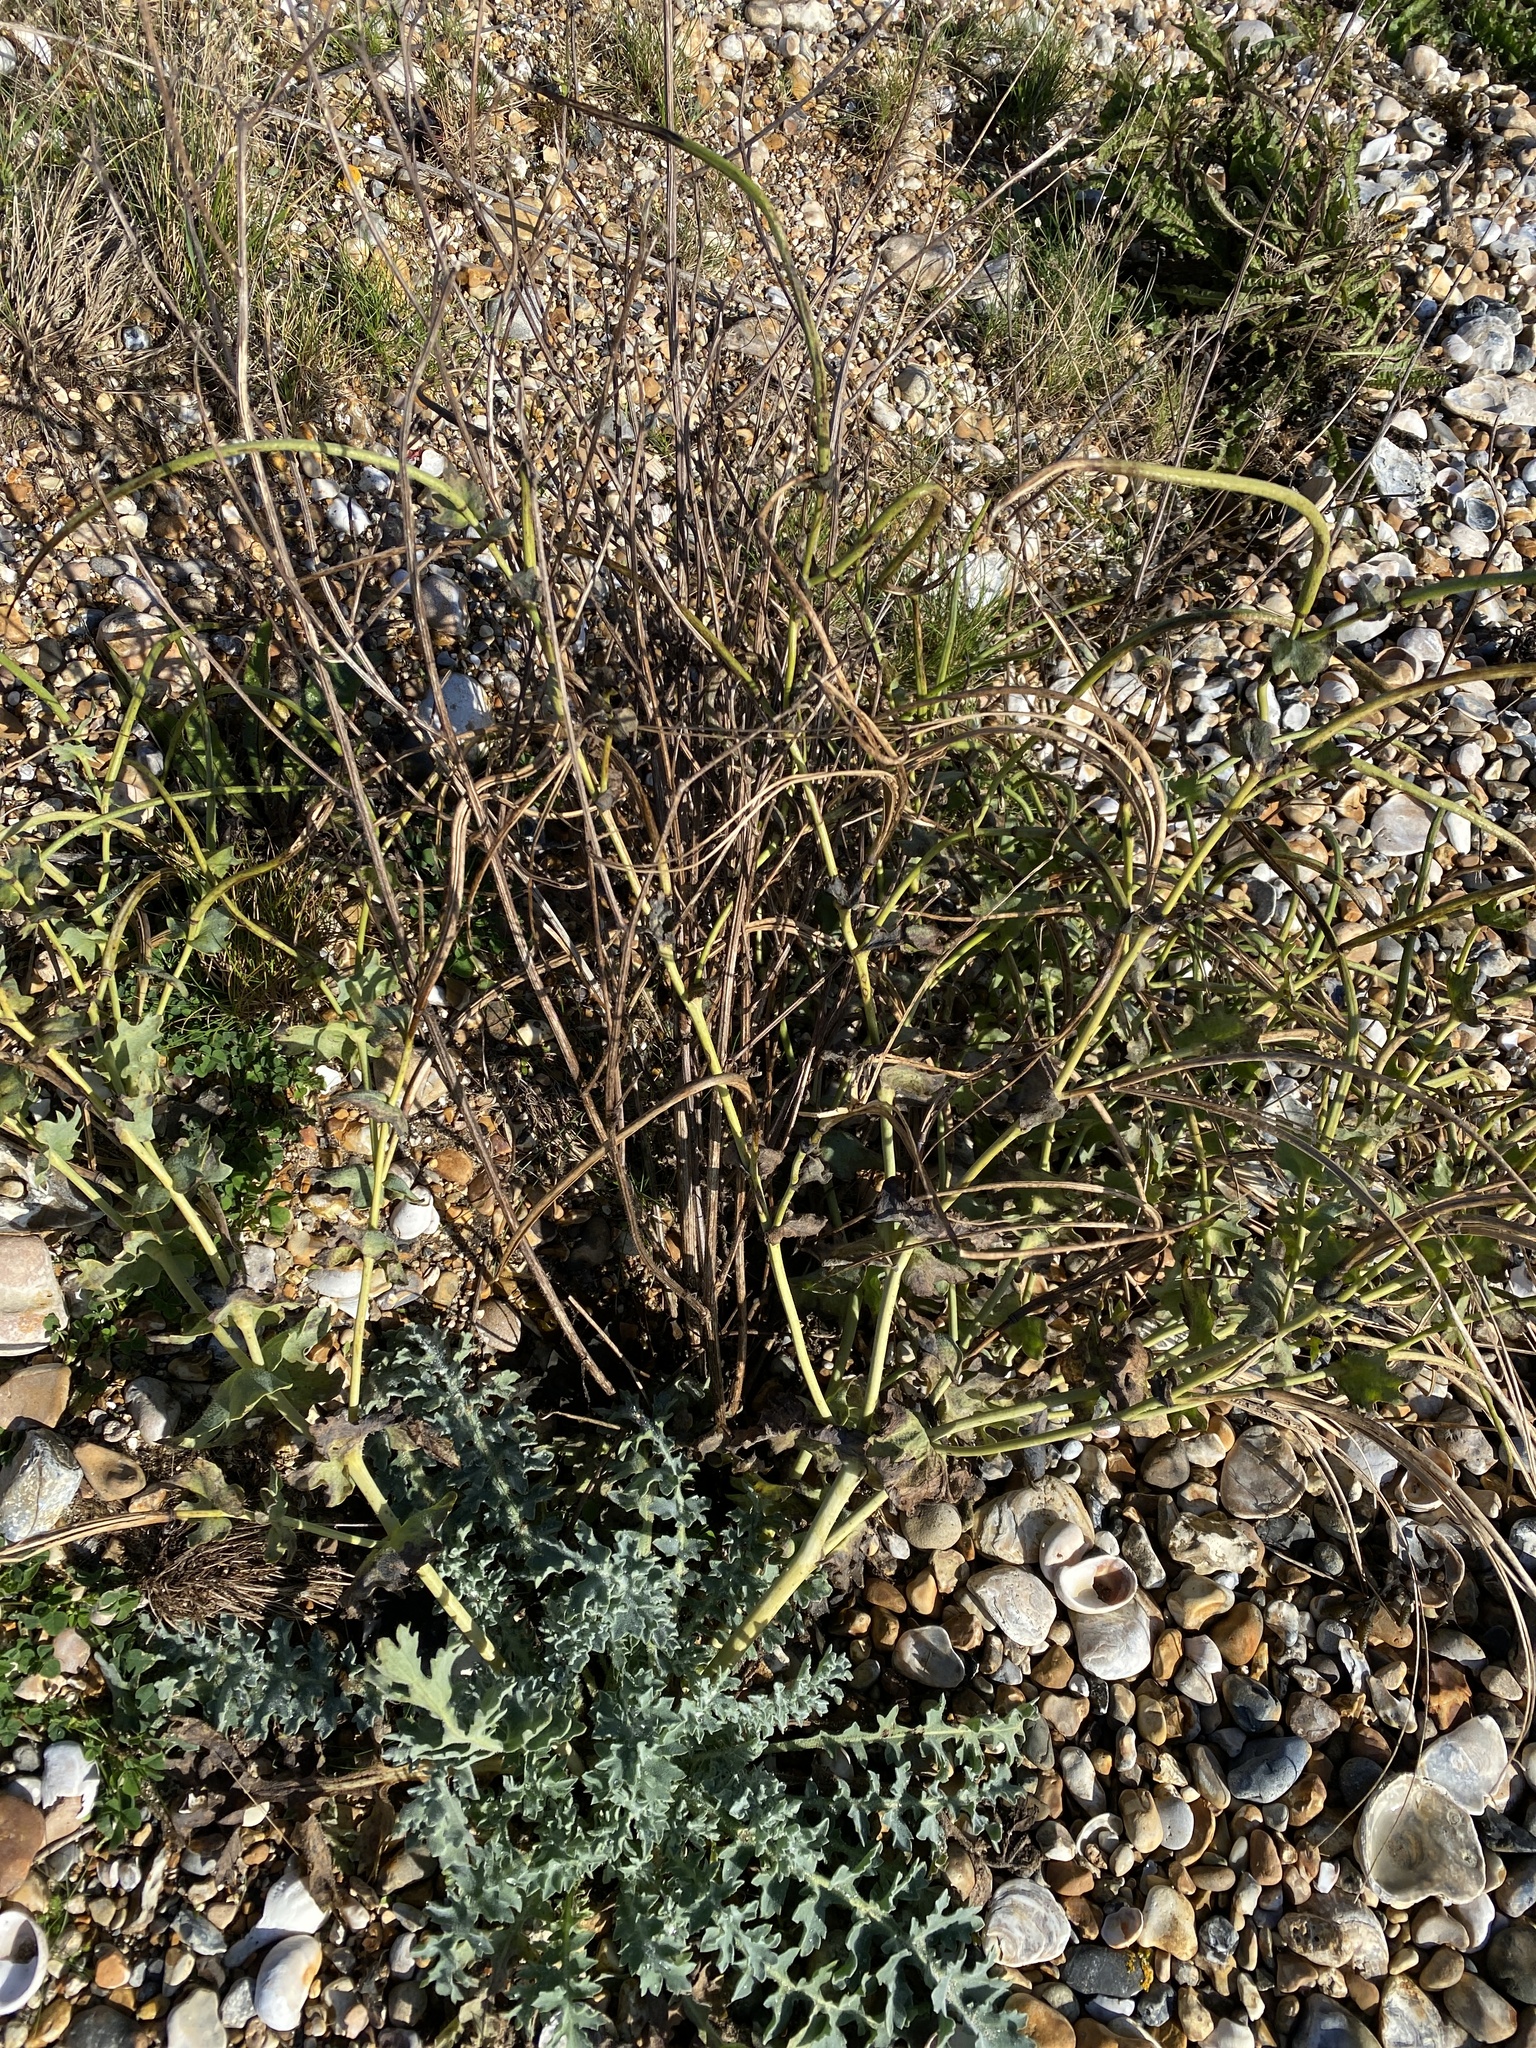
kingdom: Plantae
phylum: Tracheophyta
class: Magnoliopsida
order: Ranunculales
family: Papaveraceae
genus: Glaucium
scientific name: Glaucium flavum
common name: Yellow horned-poppy
